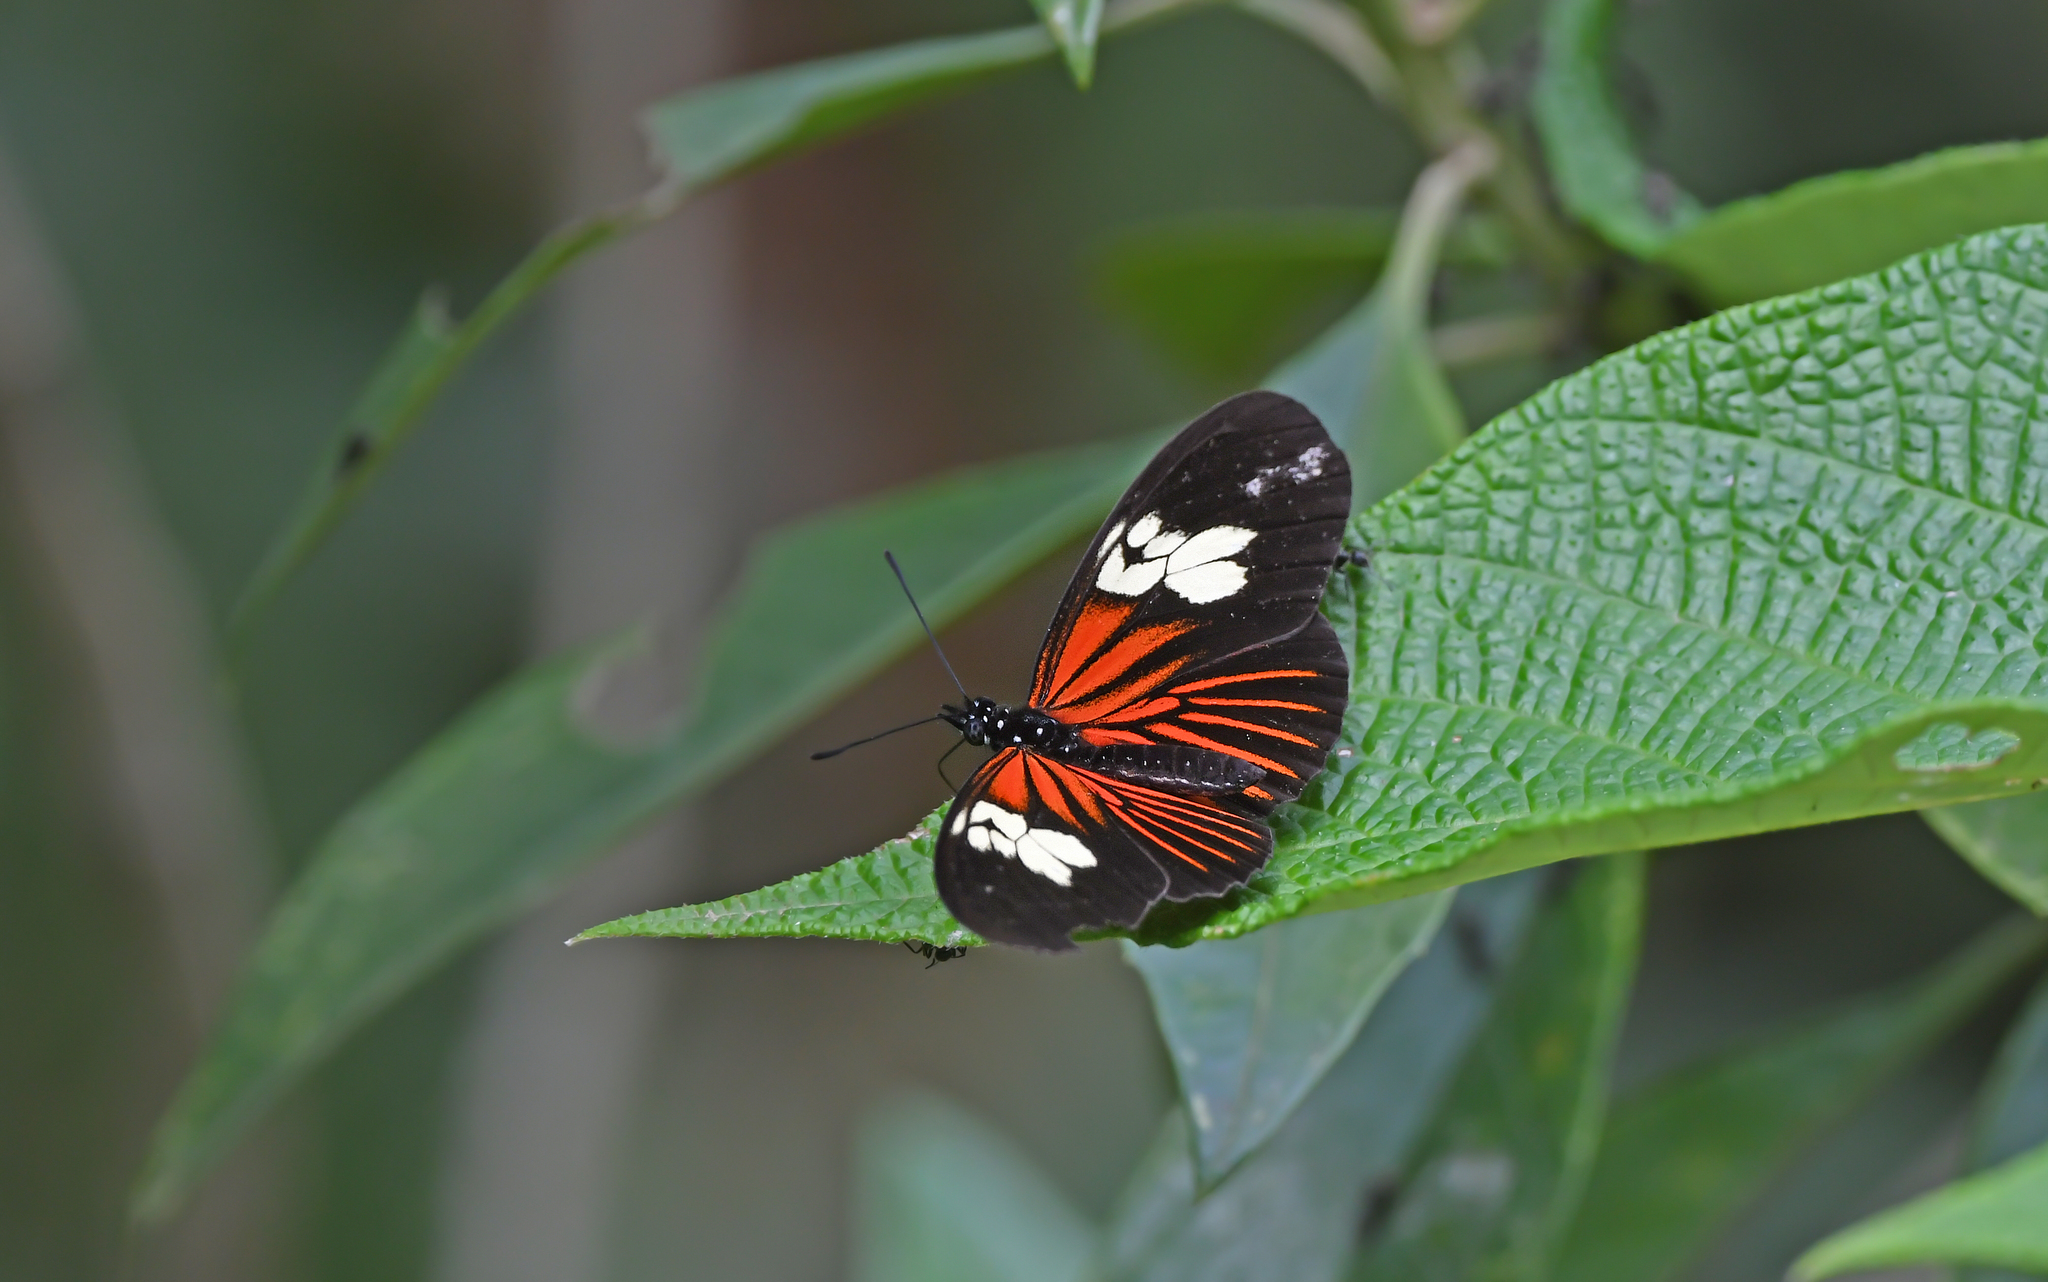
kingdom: Animalia
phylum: Arthropoda
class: Insecta
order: Lepidoptera
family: Nymphalidae
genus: Eueides
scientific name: Eueides heliconioides
